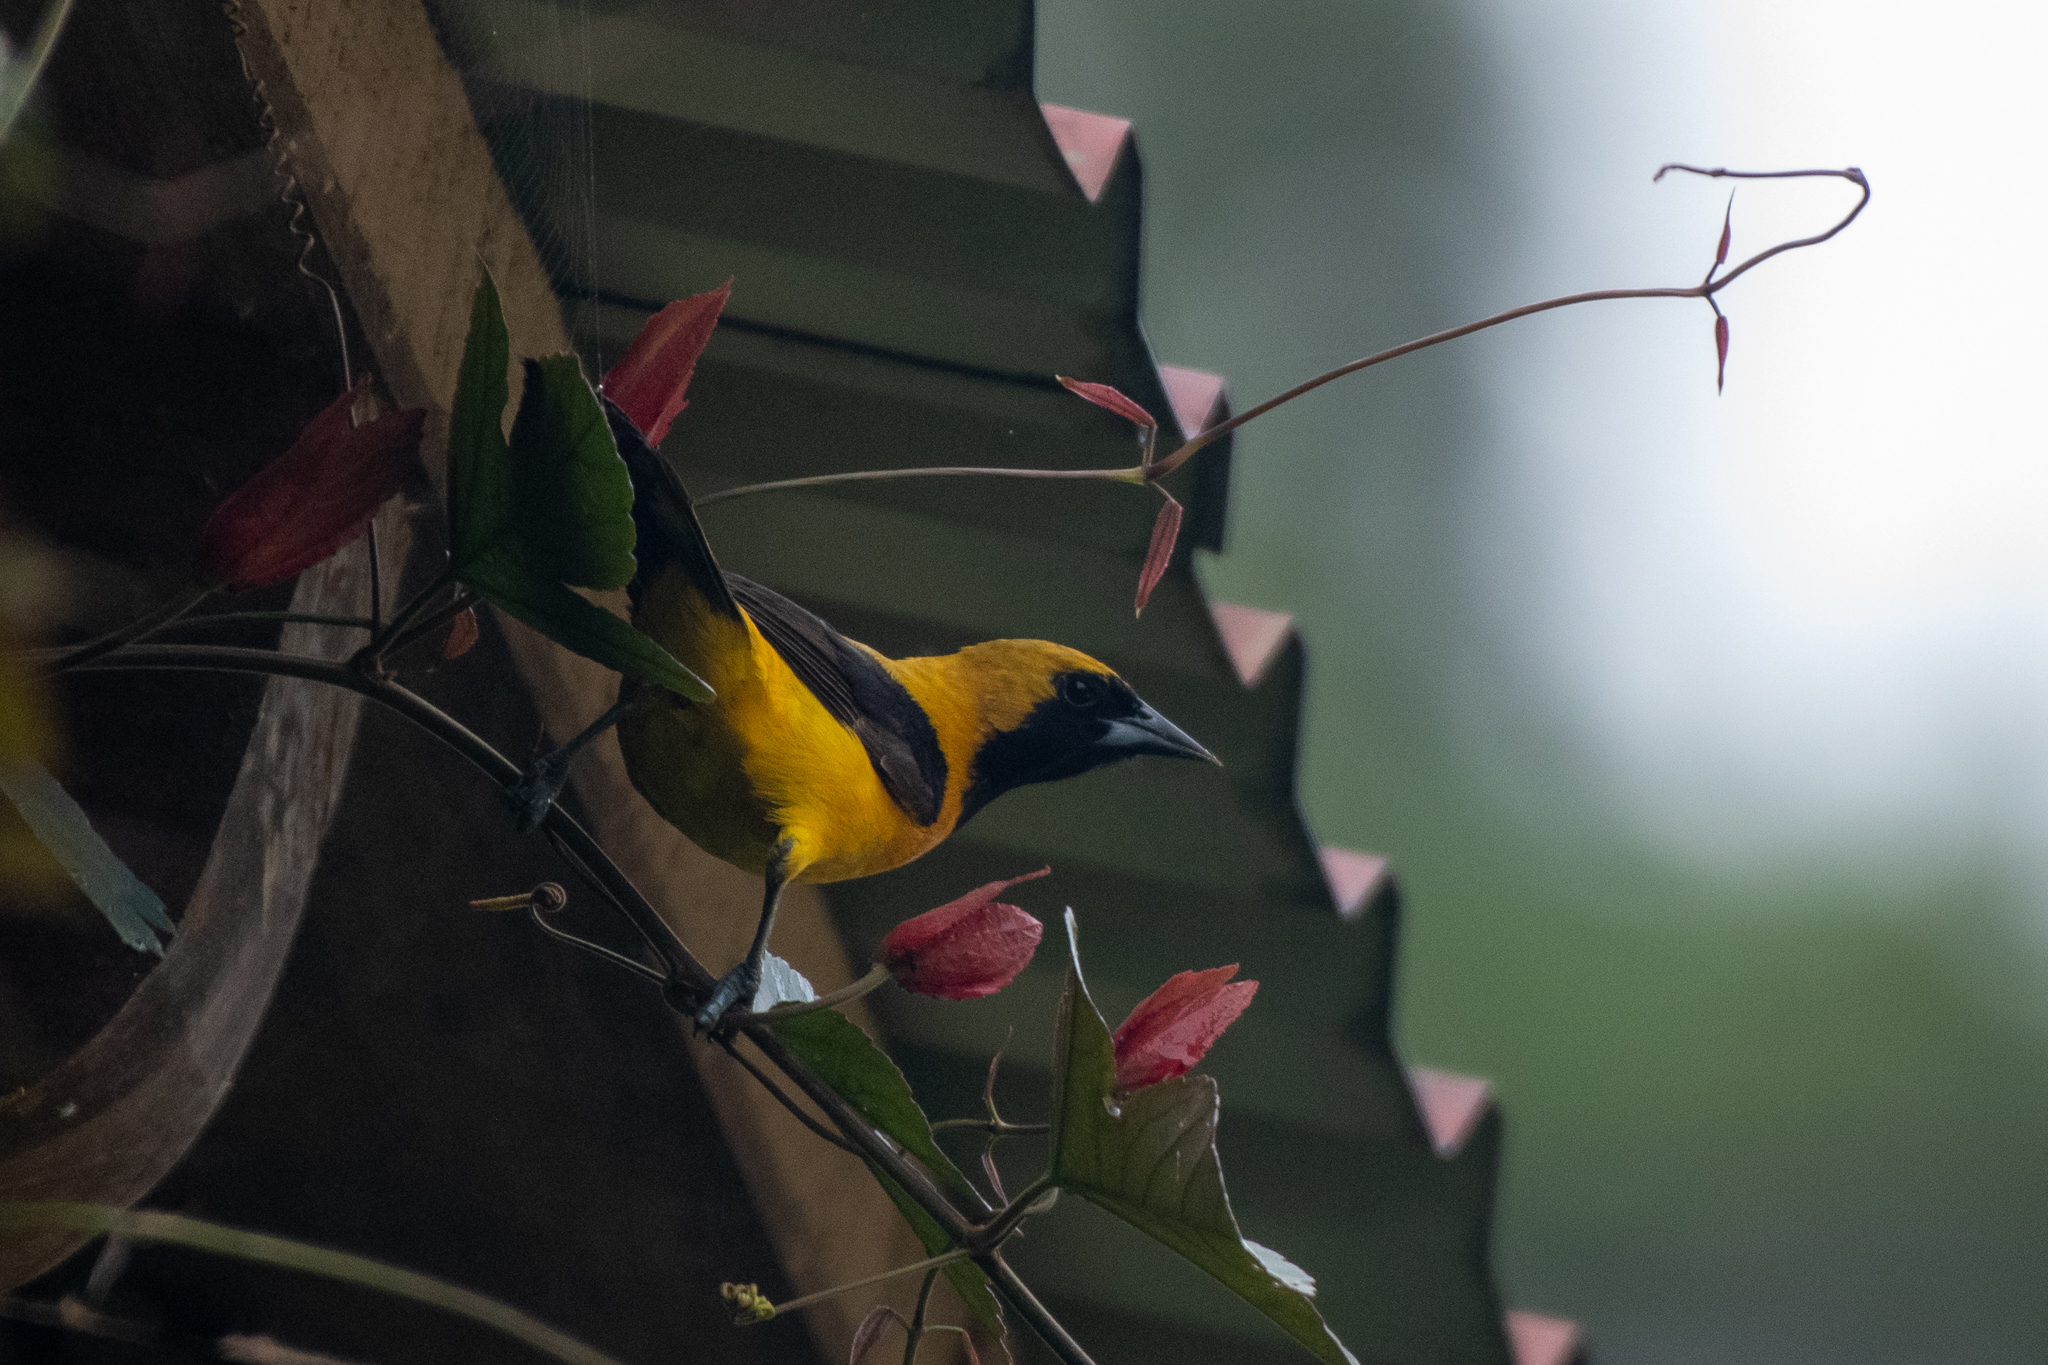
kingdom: Animalia
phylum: Chordata
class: Aves
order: Passeriformes
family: Icteridae
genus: Icterus
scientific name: Icterus chrysater
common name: Yellow-backed oriole
